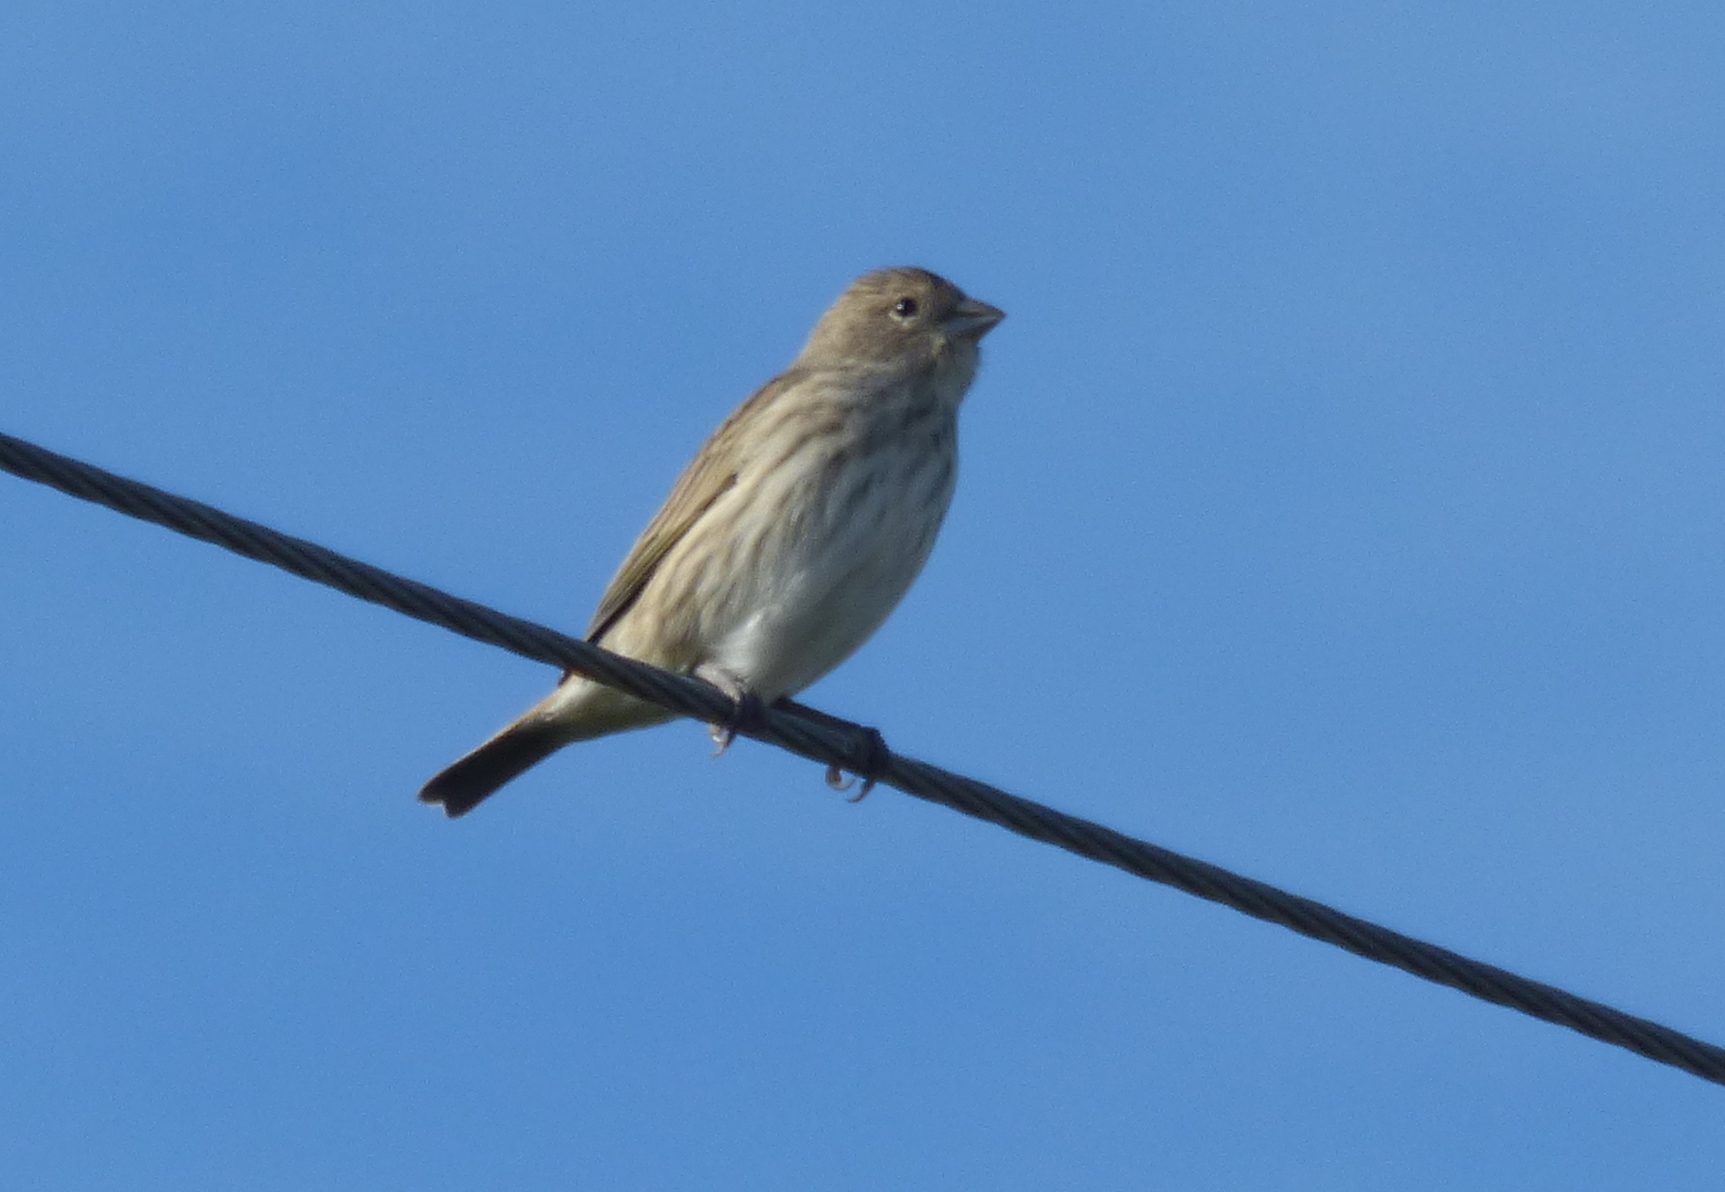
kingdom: Animalia
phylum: Chordata
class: Aves
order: Passeriformes
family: Thraupidae
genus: Sicalis
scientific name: Sicalis flaveola
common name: Saffron finch
